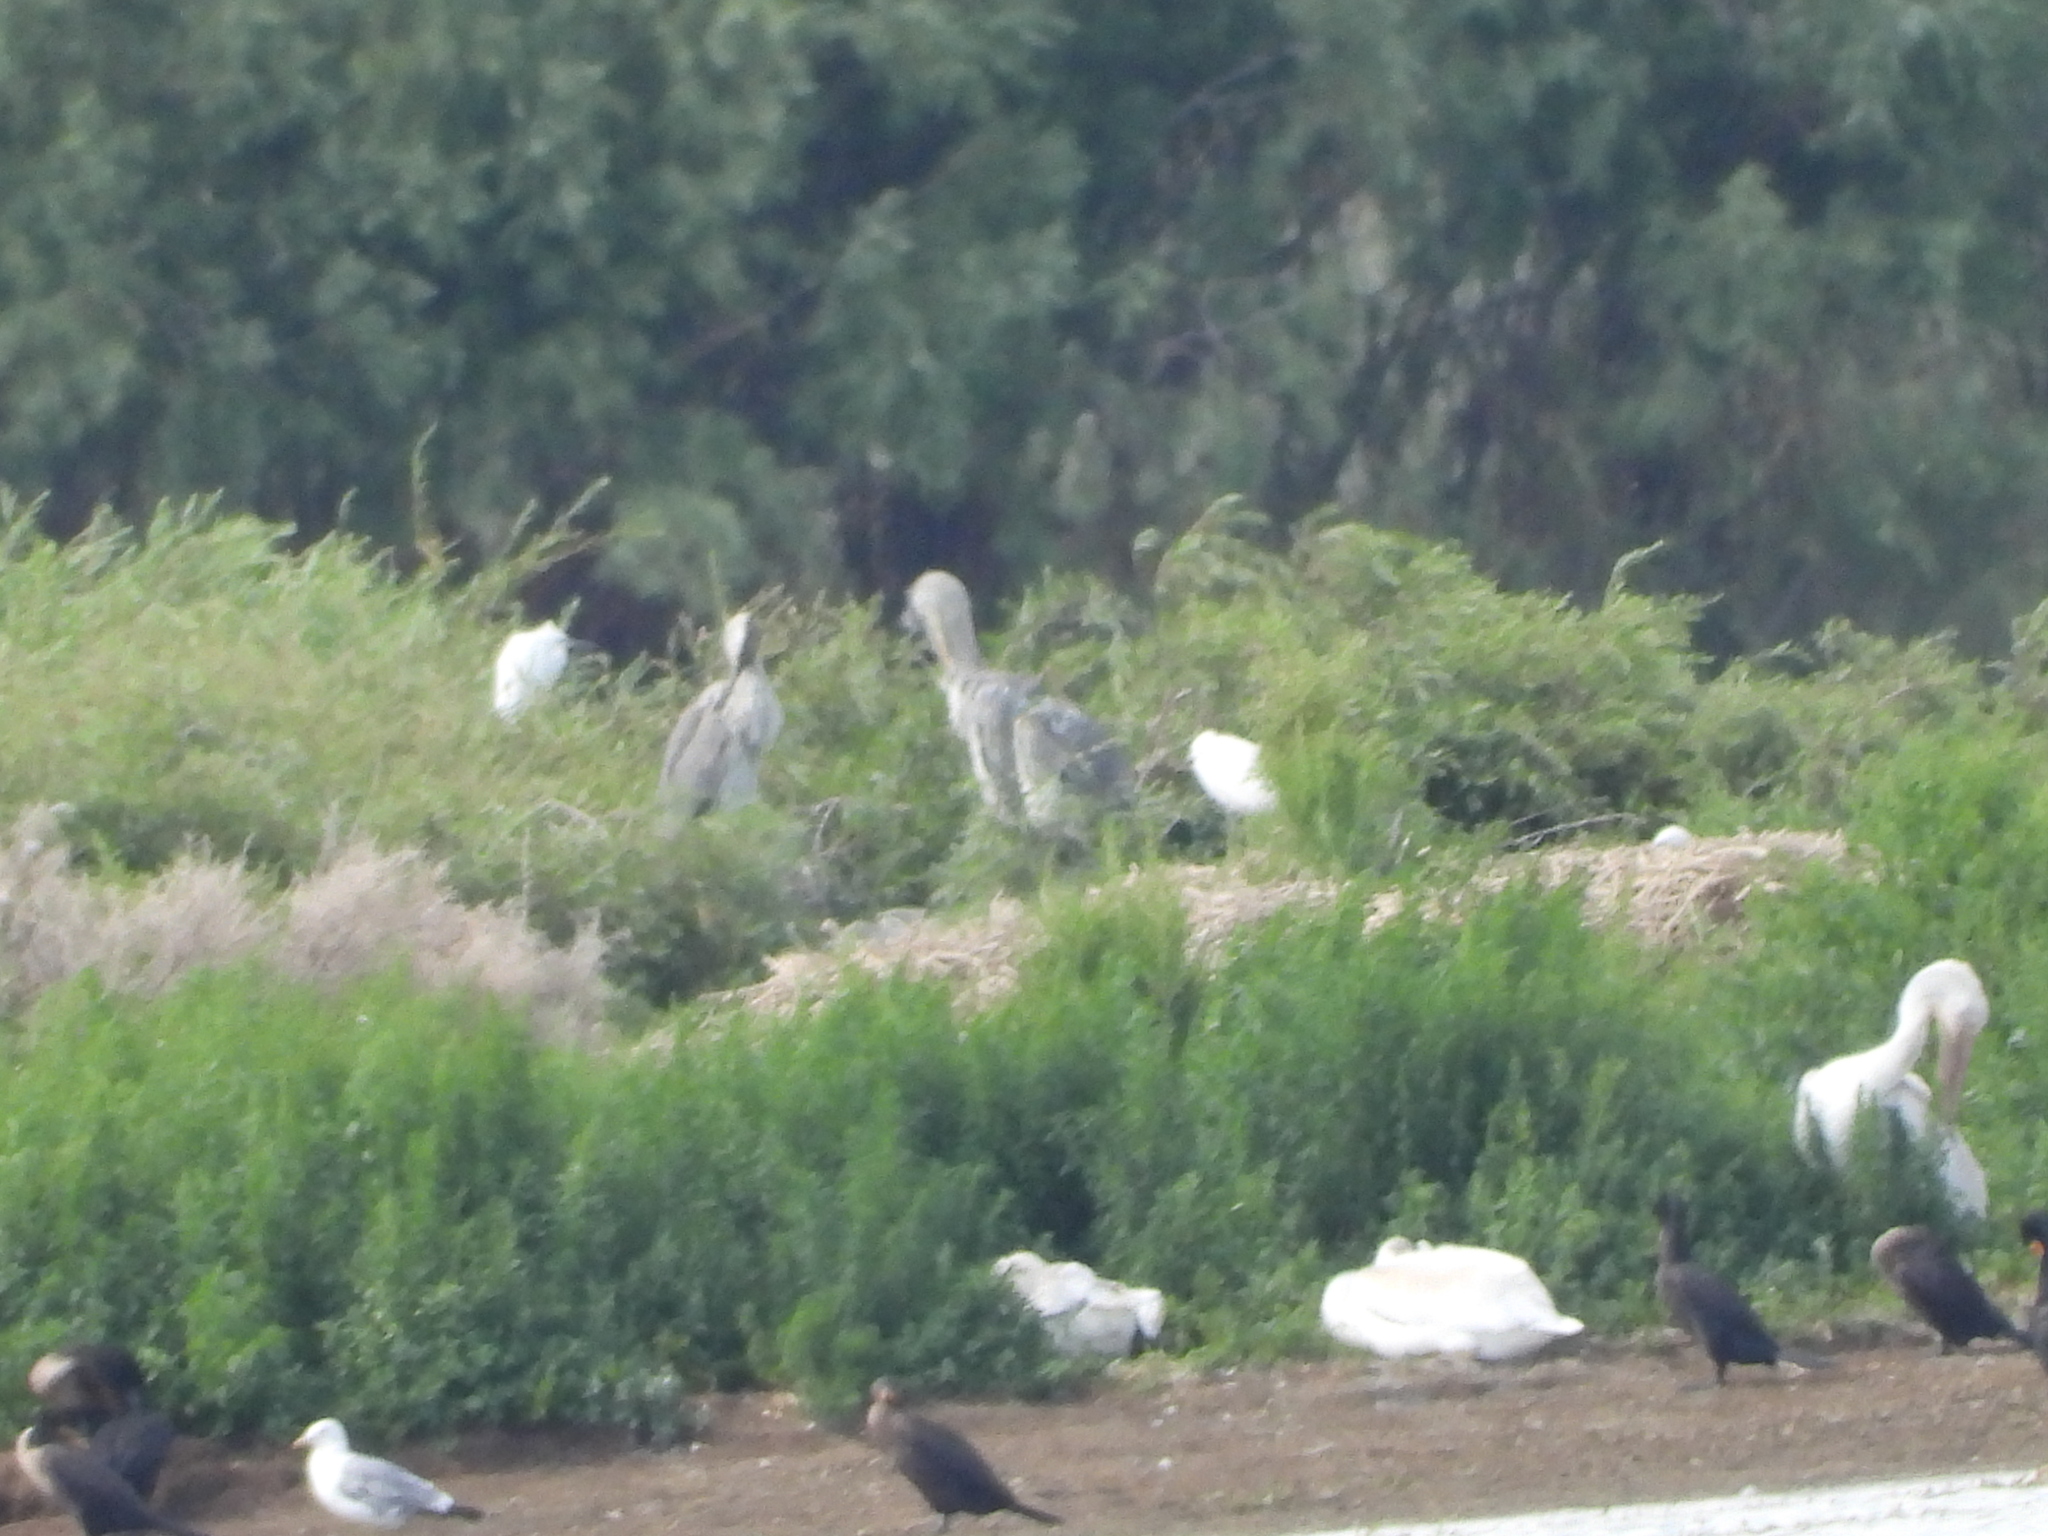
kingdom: Animalia
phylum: Chordata
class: Aves
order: Suliformes
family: Phalacrocoracidae
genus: Phalacrocorax
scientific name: Phalacrocorax auritus
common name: Double-crested cormorant
